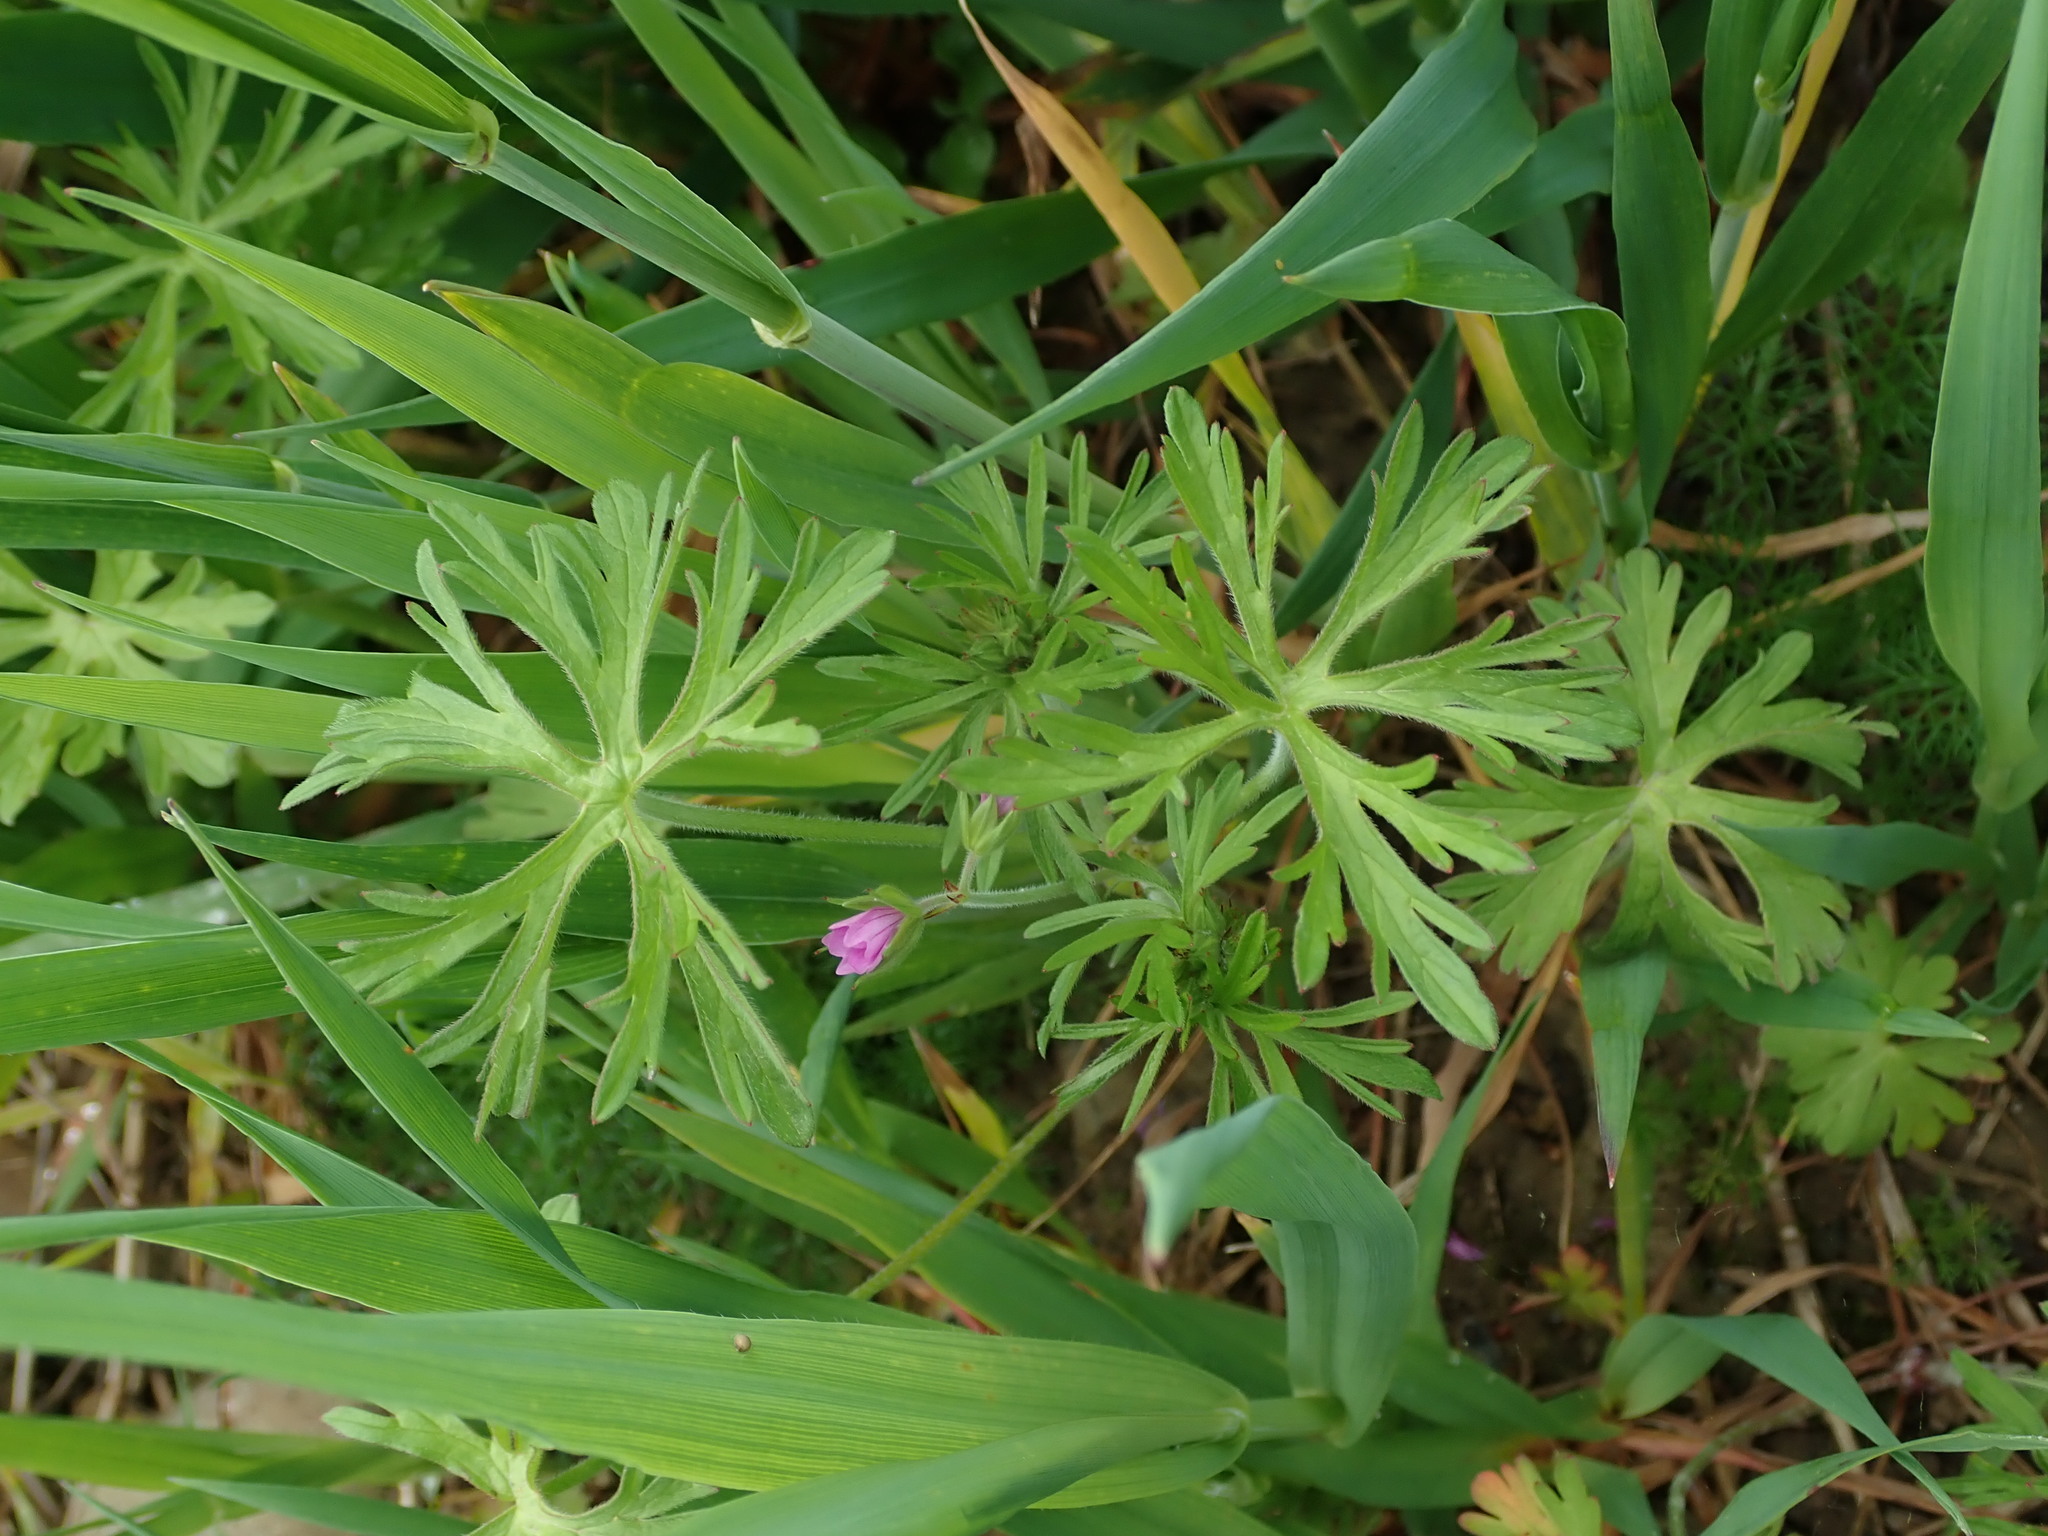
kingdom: Plantae
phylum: Tracheophyta
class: Magnoliopsida
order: Geraniales
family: Geraniaceae
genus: Geranium
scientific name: Geranium dissectum
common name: Cut-leaved crane's-bill
